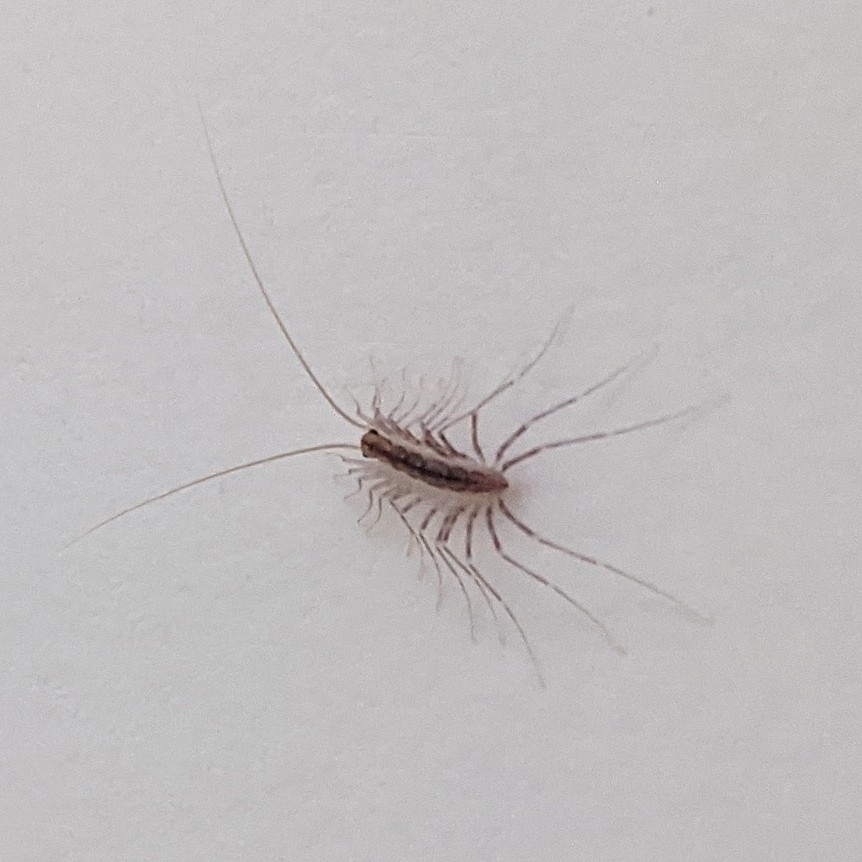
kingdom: Animalia
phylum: Arthropoda
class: Chilopoda
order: Scutigeromorpha
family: Scutigeridae
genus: Scutigera
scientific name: Scutigera coleoptrata
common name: House centipede
